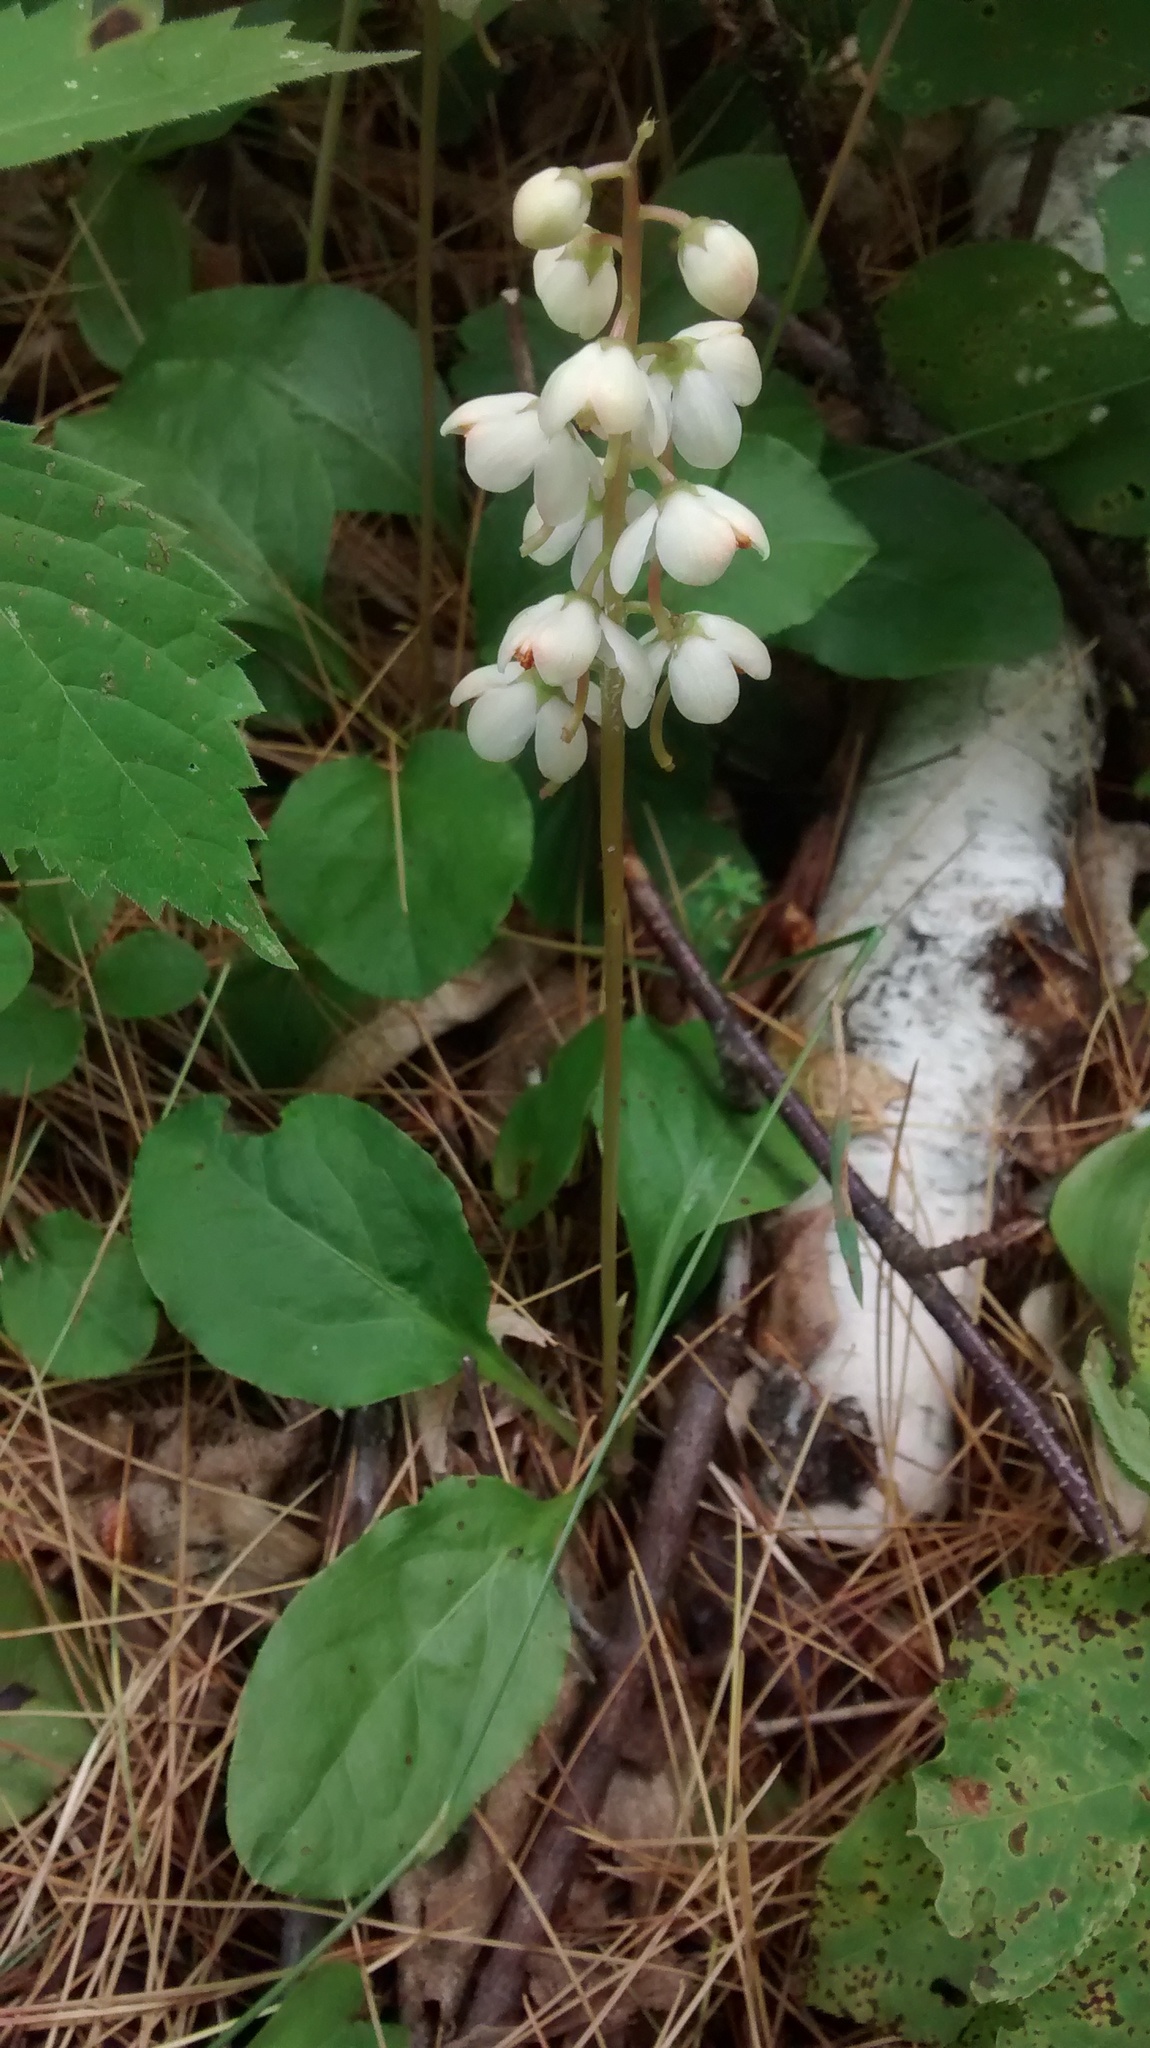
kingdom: Plantae
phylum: Tracheophyta
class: Magnoliopsida
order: Ericales
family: Ericaceae
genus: Pyrola
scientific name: Pyrola elliptica
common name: Shinleaf
